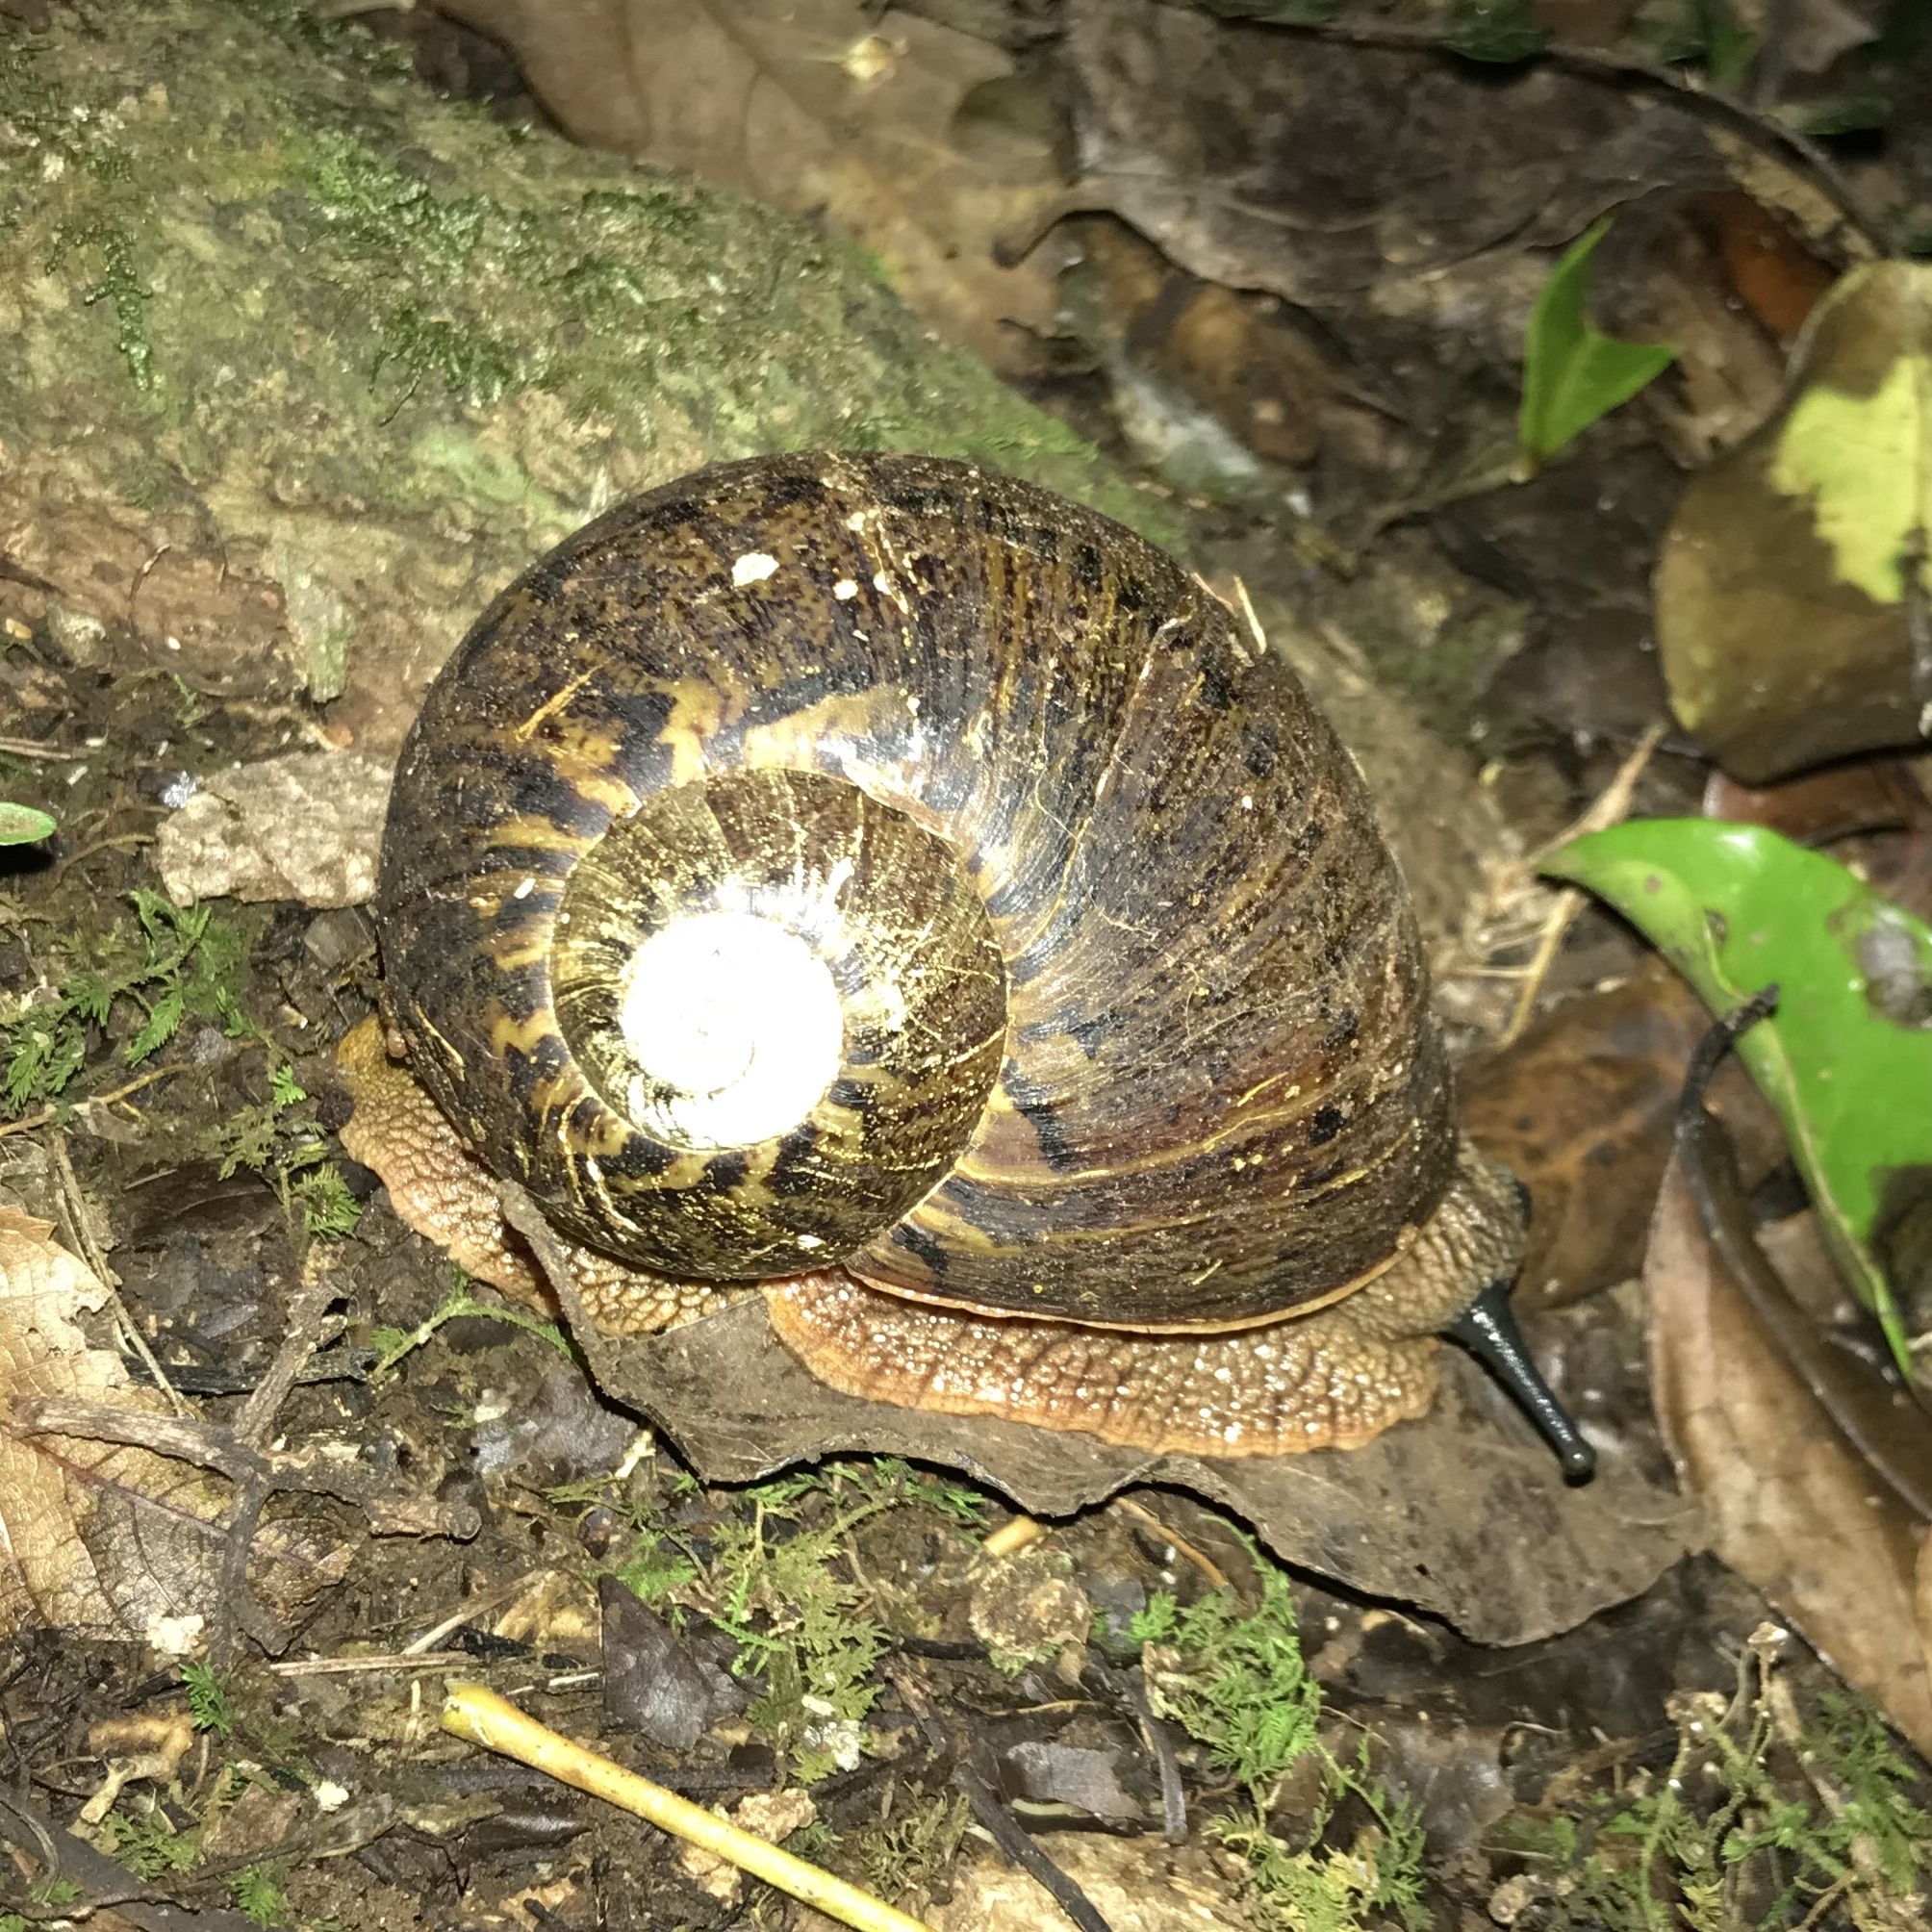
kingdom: Animalia
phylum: Mollusca
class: Gastropoda
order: Stylommatophora
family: Caryodidae
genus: Hedleyella
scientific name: Hedleyella falconeri
